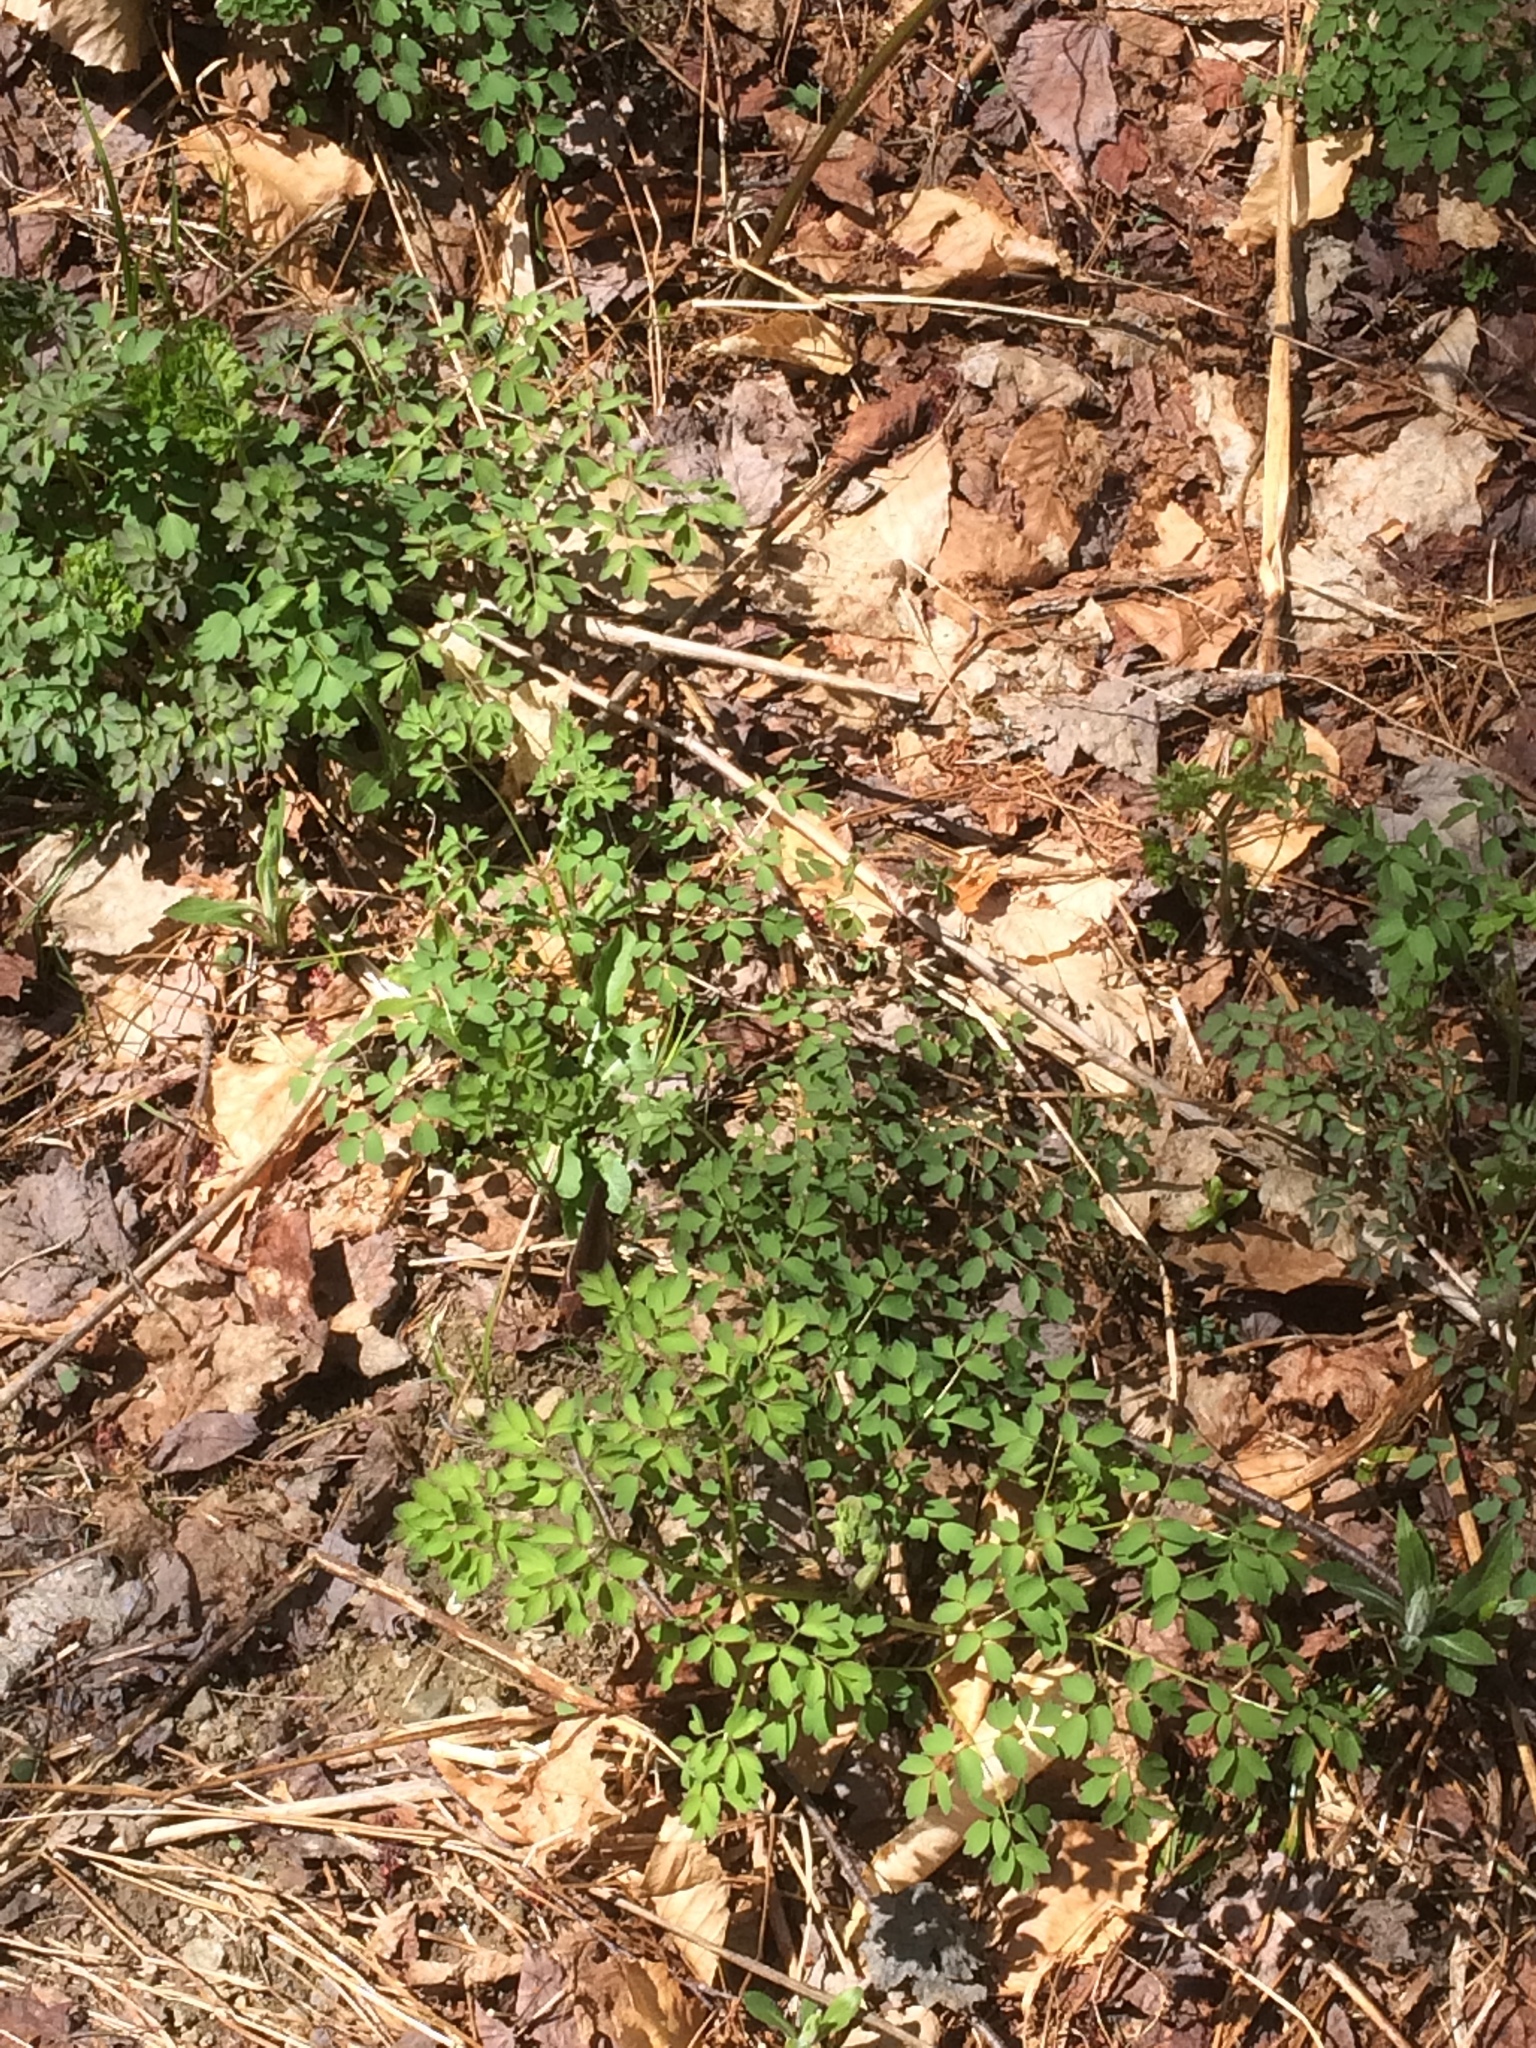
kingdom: Plantae
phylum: Tracheophyta
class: Magnoliopsida
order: Ranunculales
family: Ranunculaceae
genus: Thalictrum
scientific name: Thalictrum pubescens
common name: King-of-the-meadow
